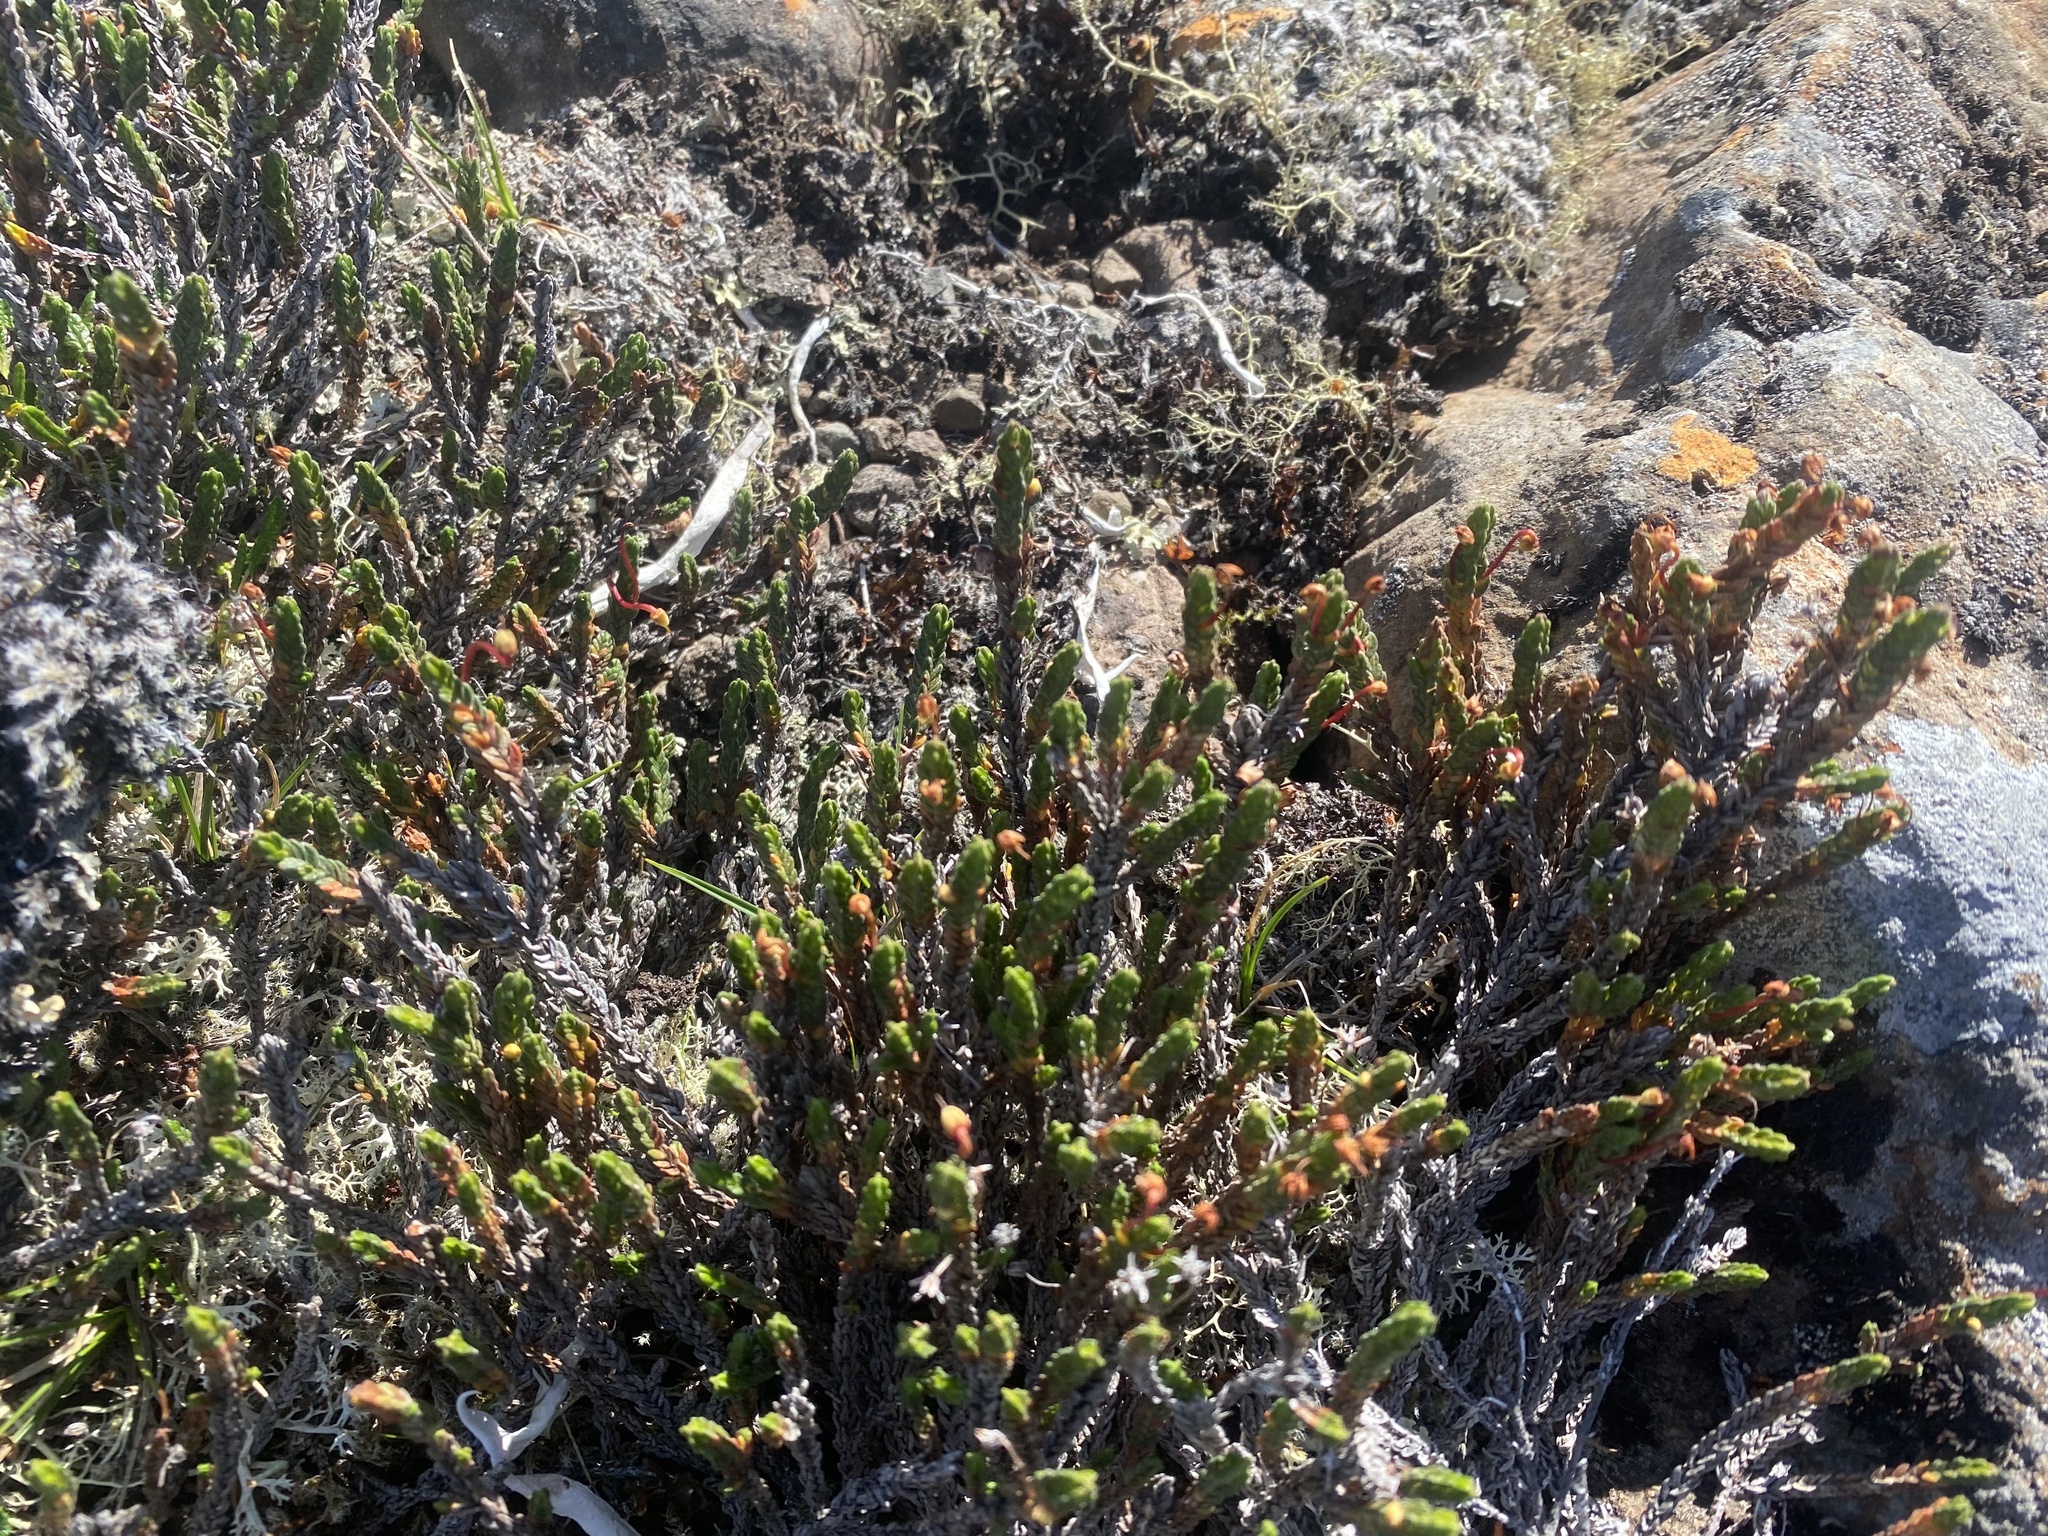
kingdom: Plantae
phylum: Tracheophyta
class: Magnoliopsida
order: Ericales
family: Ericaceae
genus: Cassiope
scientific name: Cassiope tetragona
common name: Arctic bell heather
